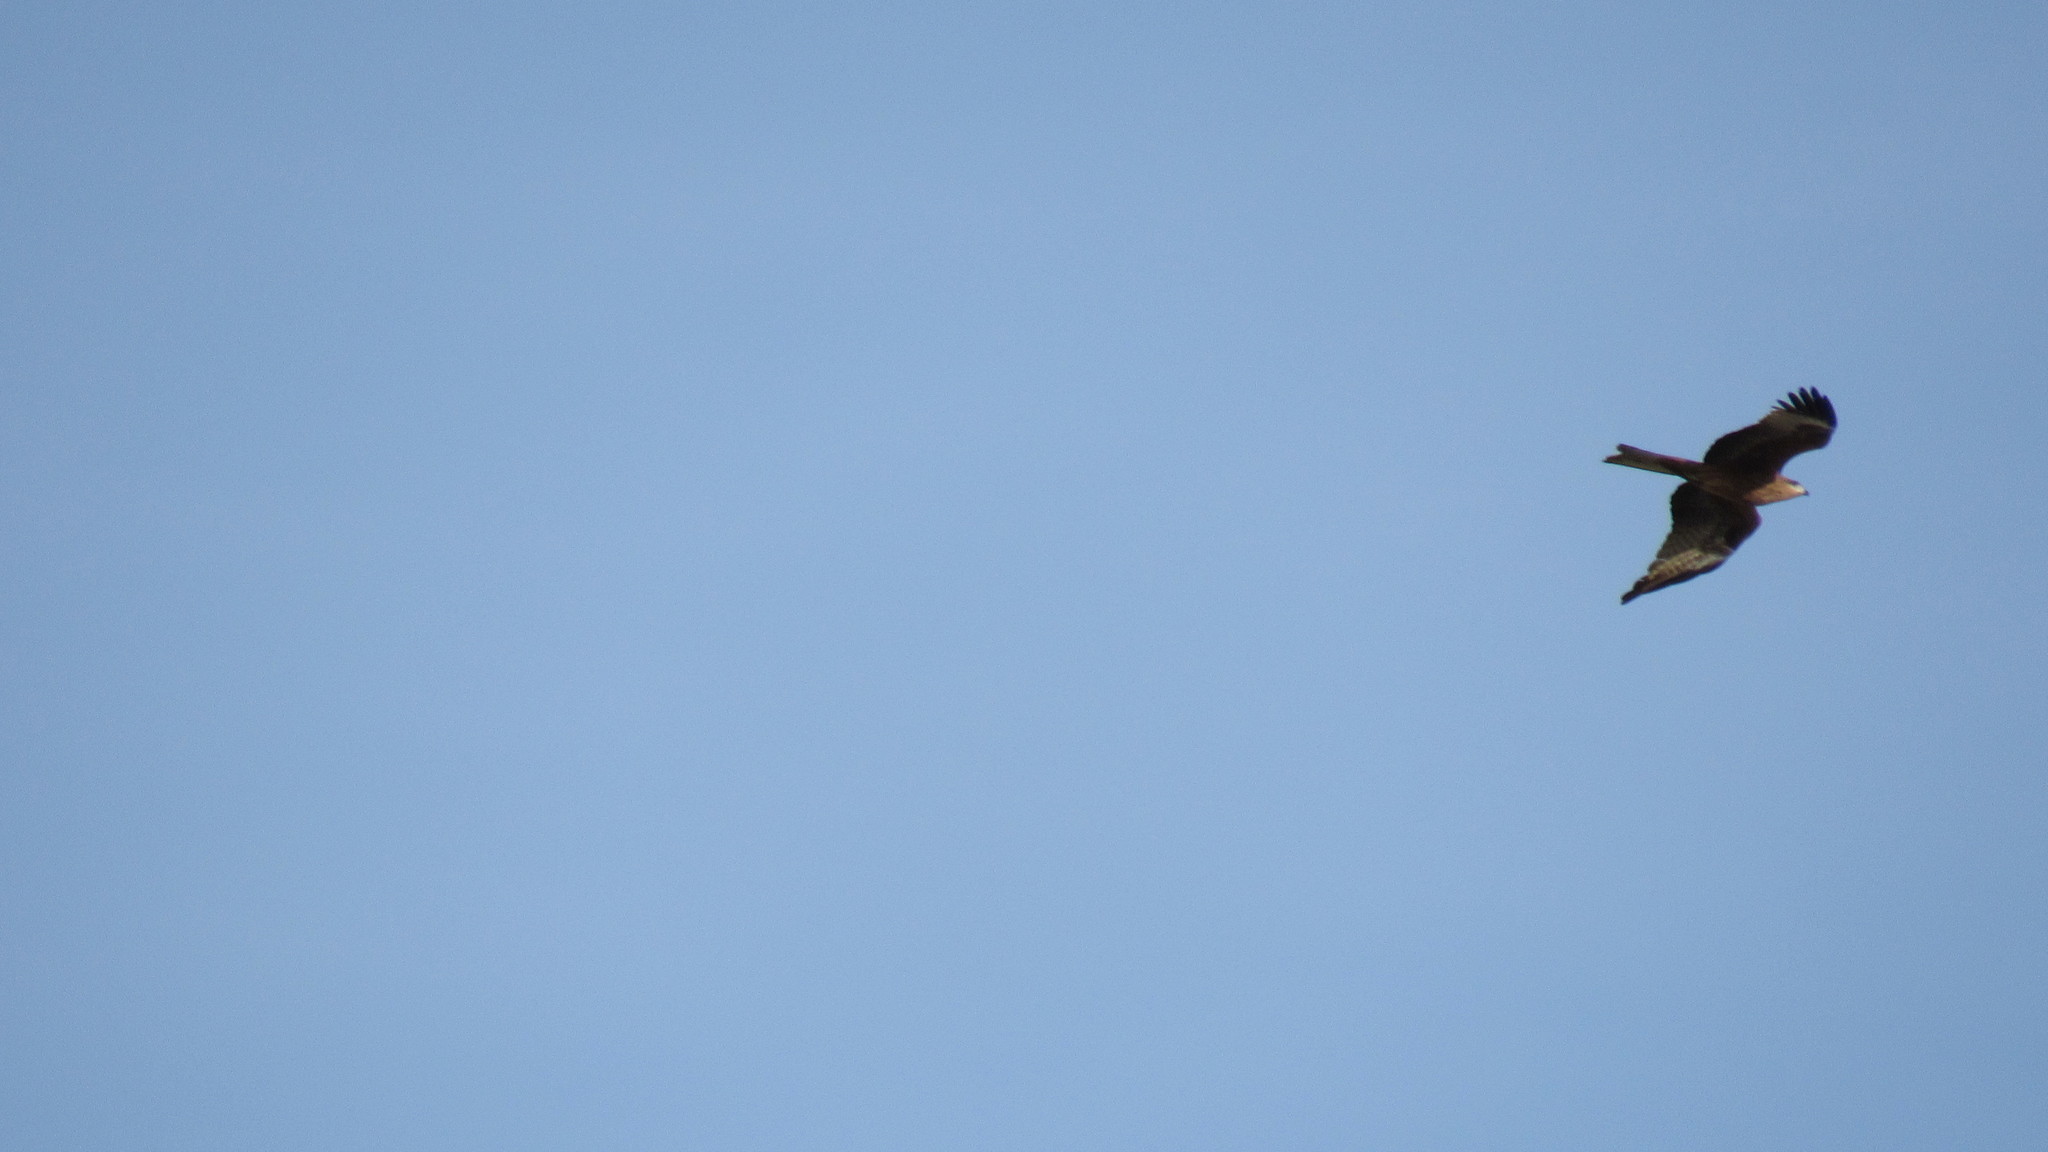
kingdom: Animalia
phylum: Chordata
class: Aves
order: Accipitriformes
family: Accipitridae
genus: Milvus
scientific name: Milvus migrans
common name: Black kite
